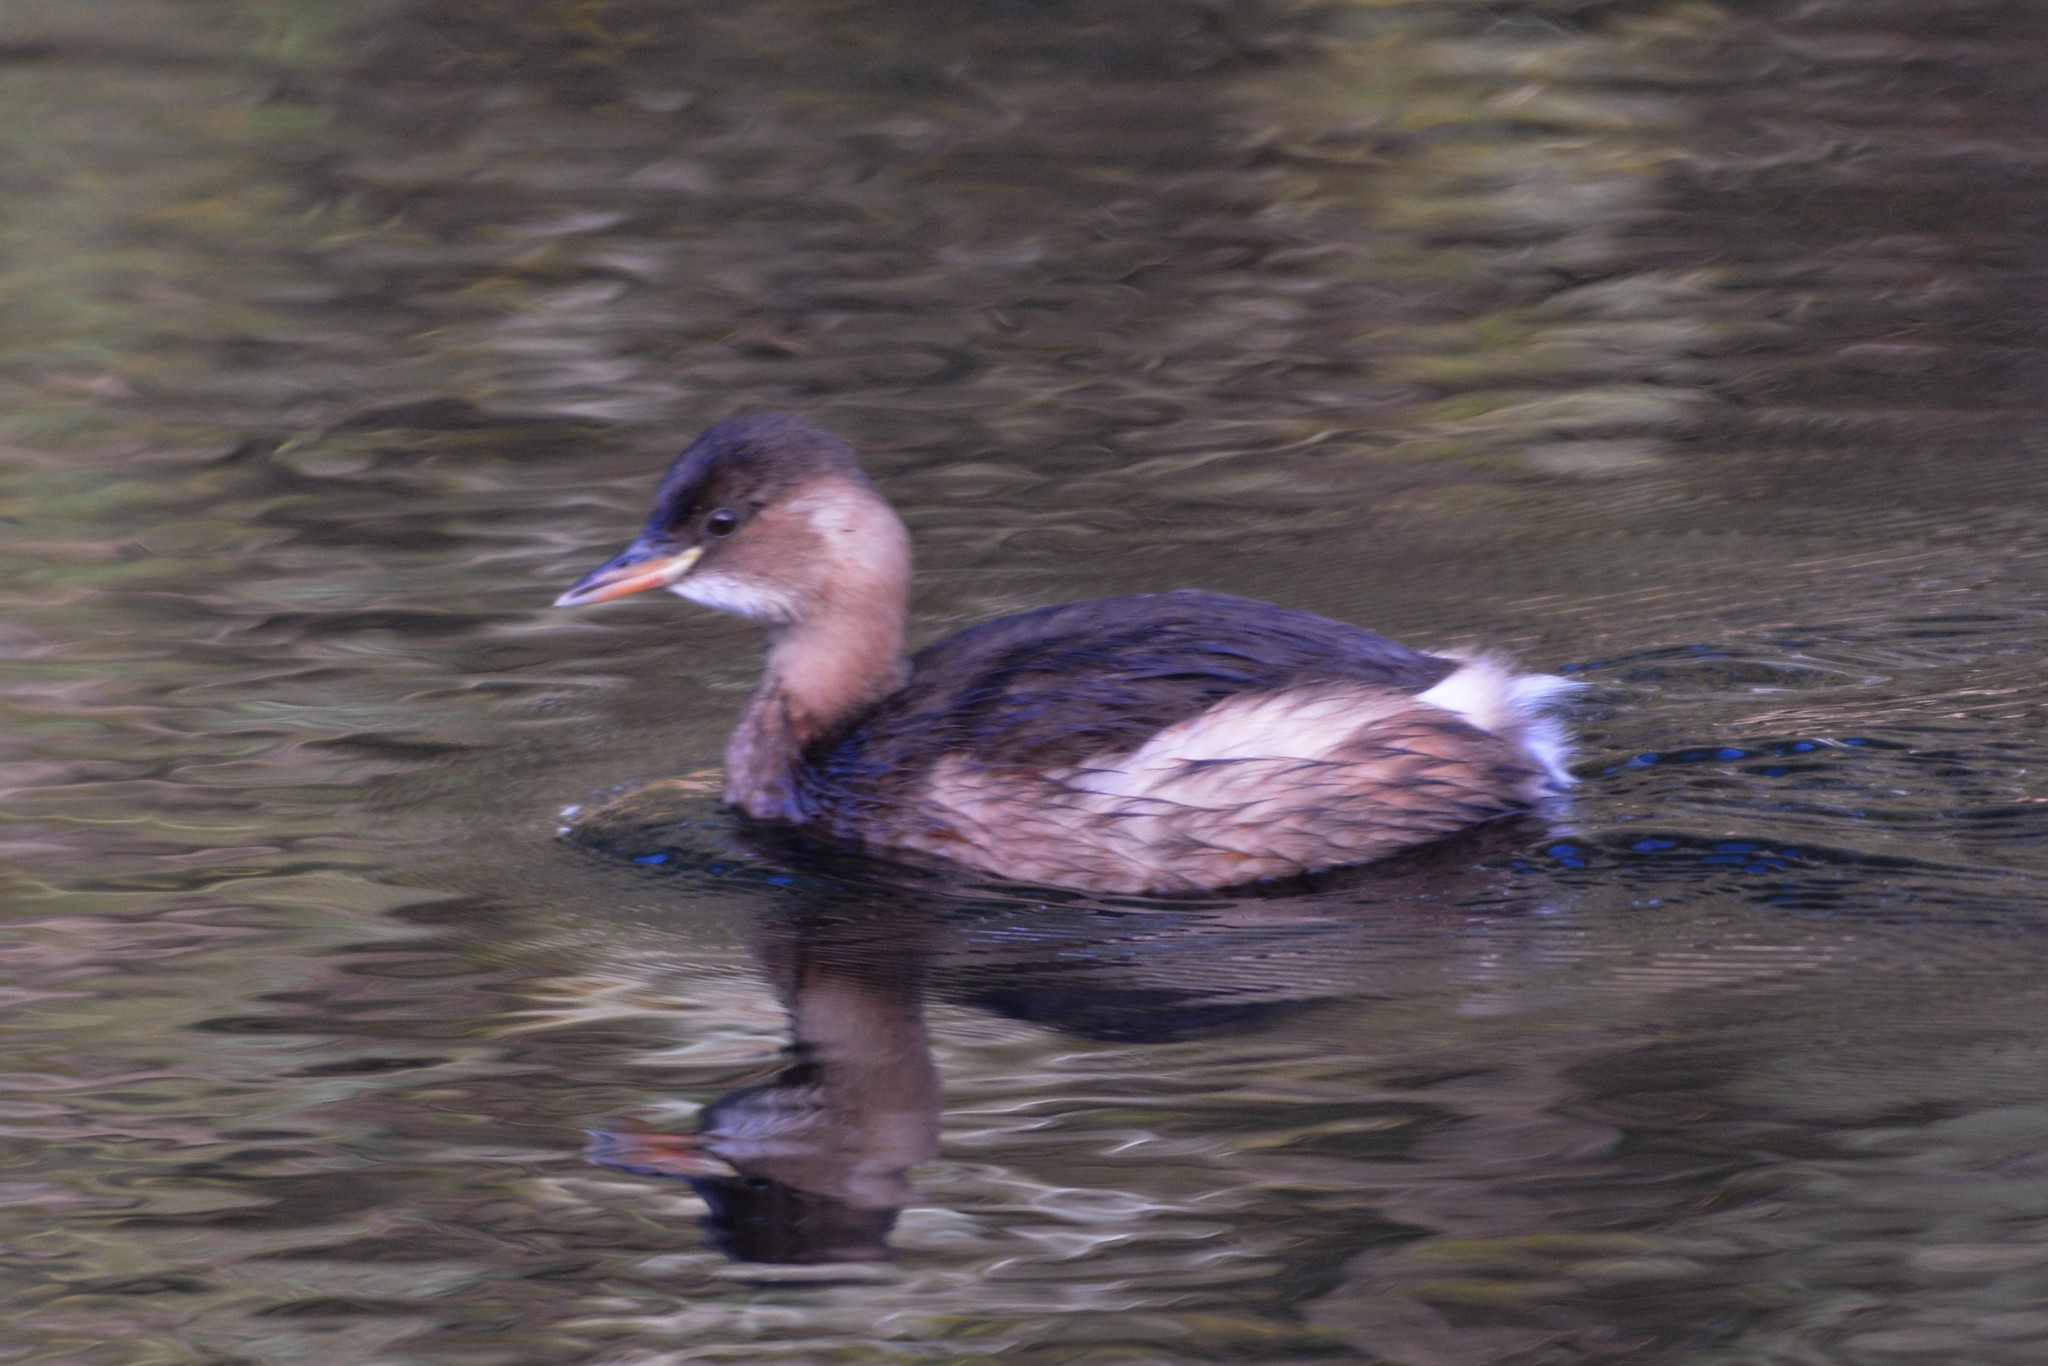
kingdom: Animalia
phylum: Chordata
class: Aves
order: Podicipediformes
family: Podicipedidae
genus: Tachybaptus
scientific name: Tachybaptus ruficollis
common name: Little grebe
